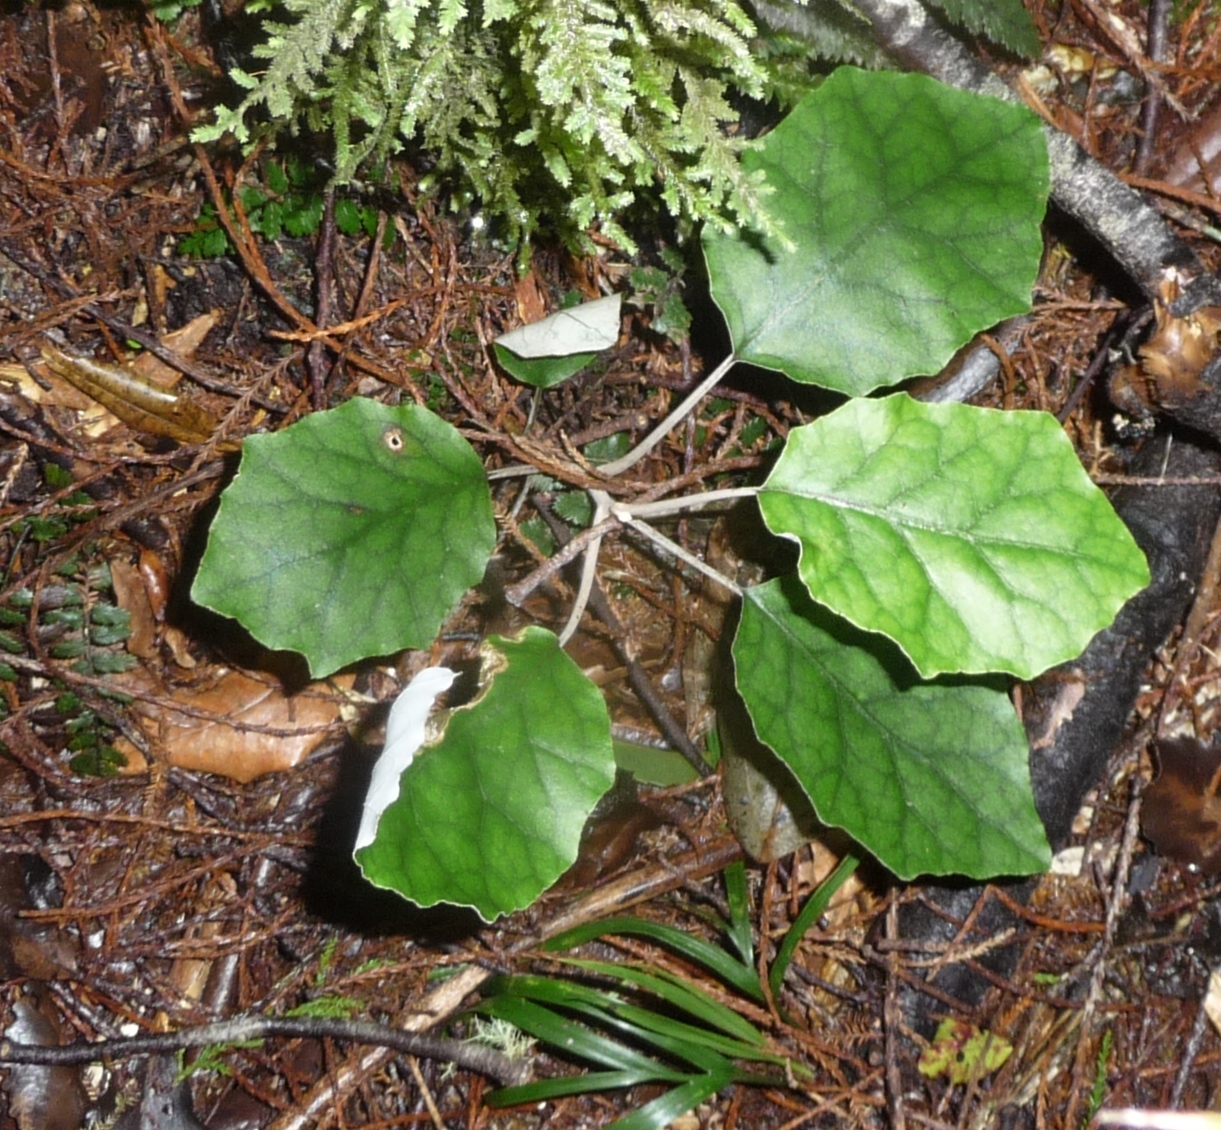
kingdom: Plantae
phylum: Tracheophyta
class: Magnoliopsida
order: Asterales
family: Asteraceae
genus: Brachyglottis
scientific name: Brachyglottis repanda
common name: Hedge ragwort
